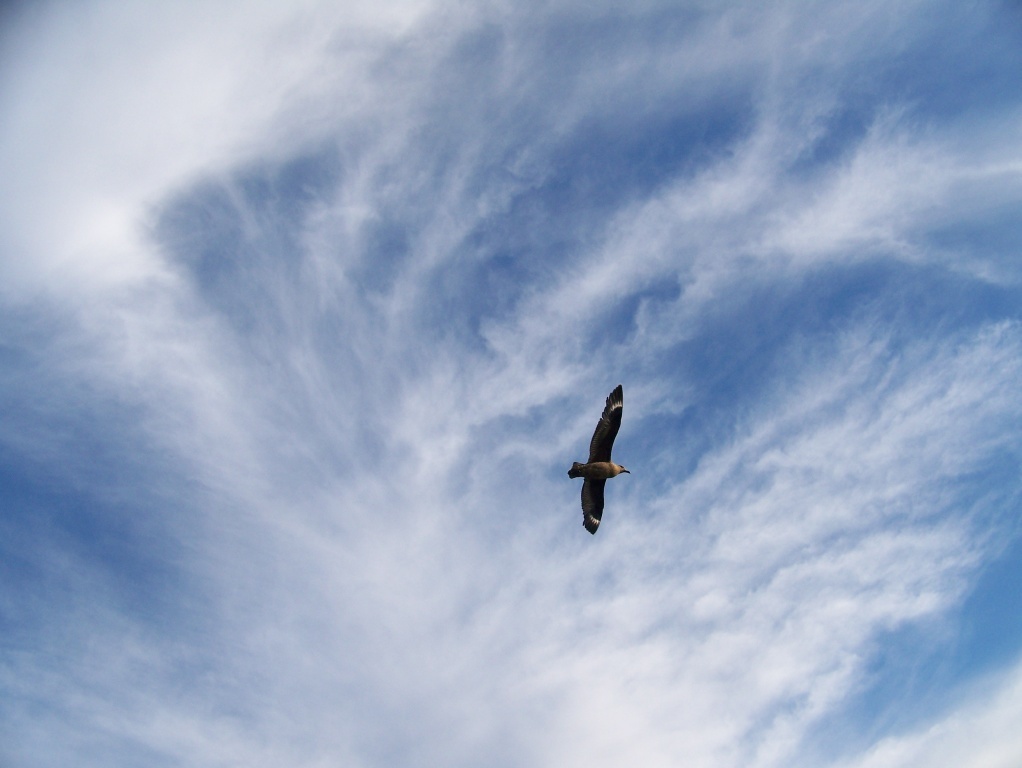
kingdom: Animalia
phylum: Chordata
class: Aves
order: Charadriiformes
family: Stercorariidae
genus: Stercorarius
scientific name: Stercorarius antarcticus
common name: Brown skua
